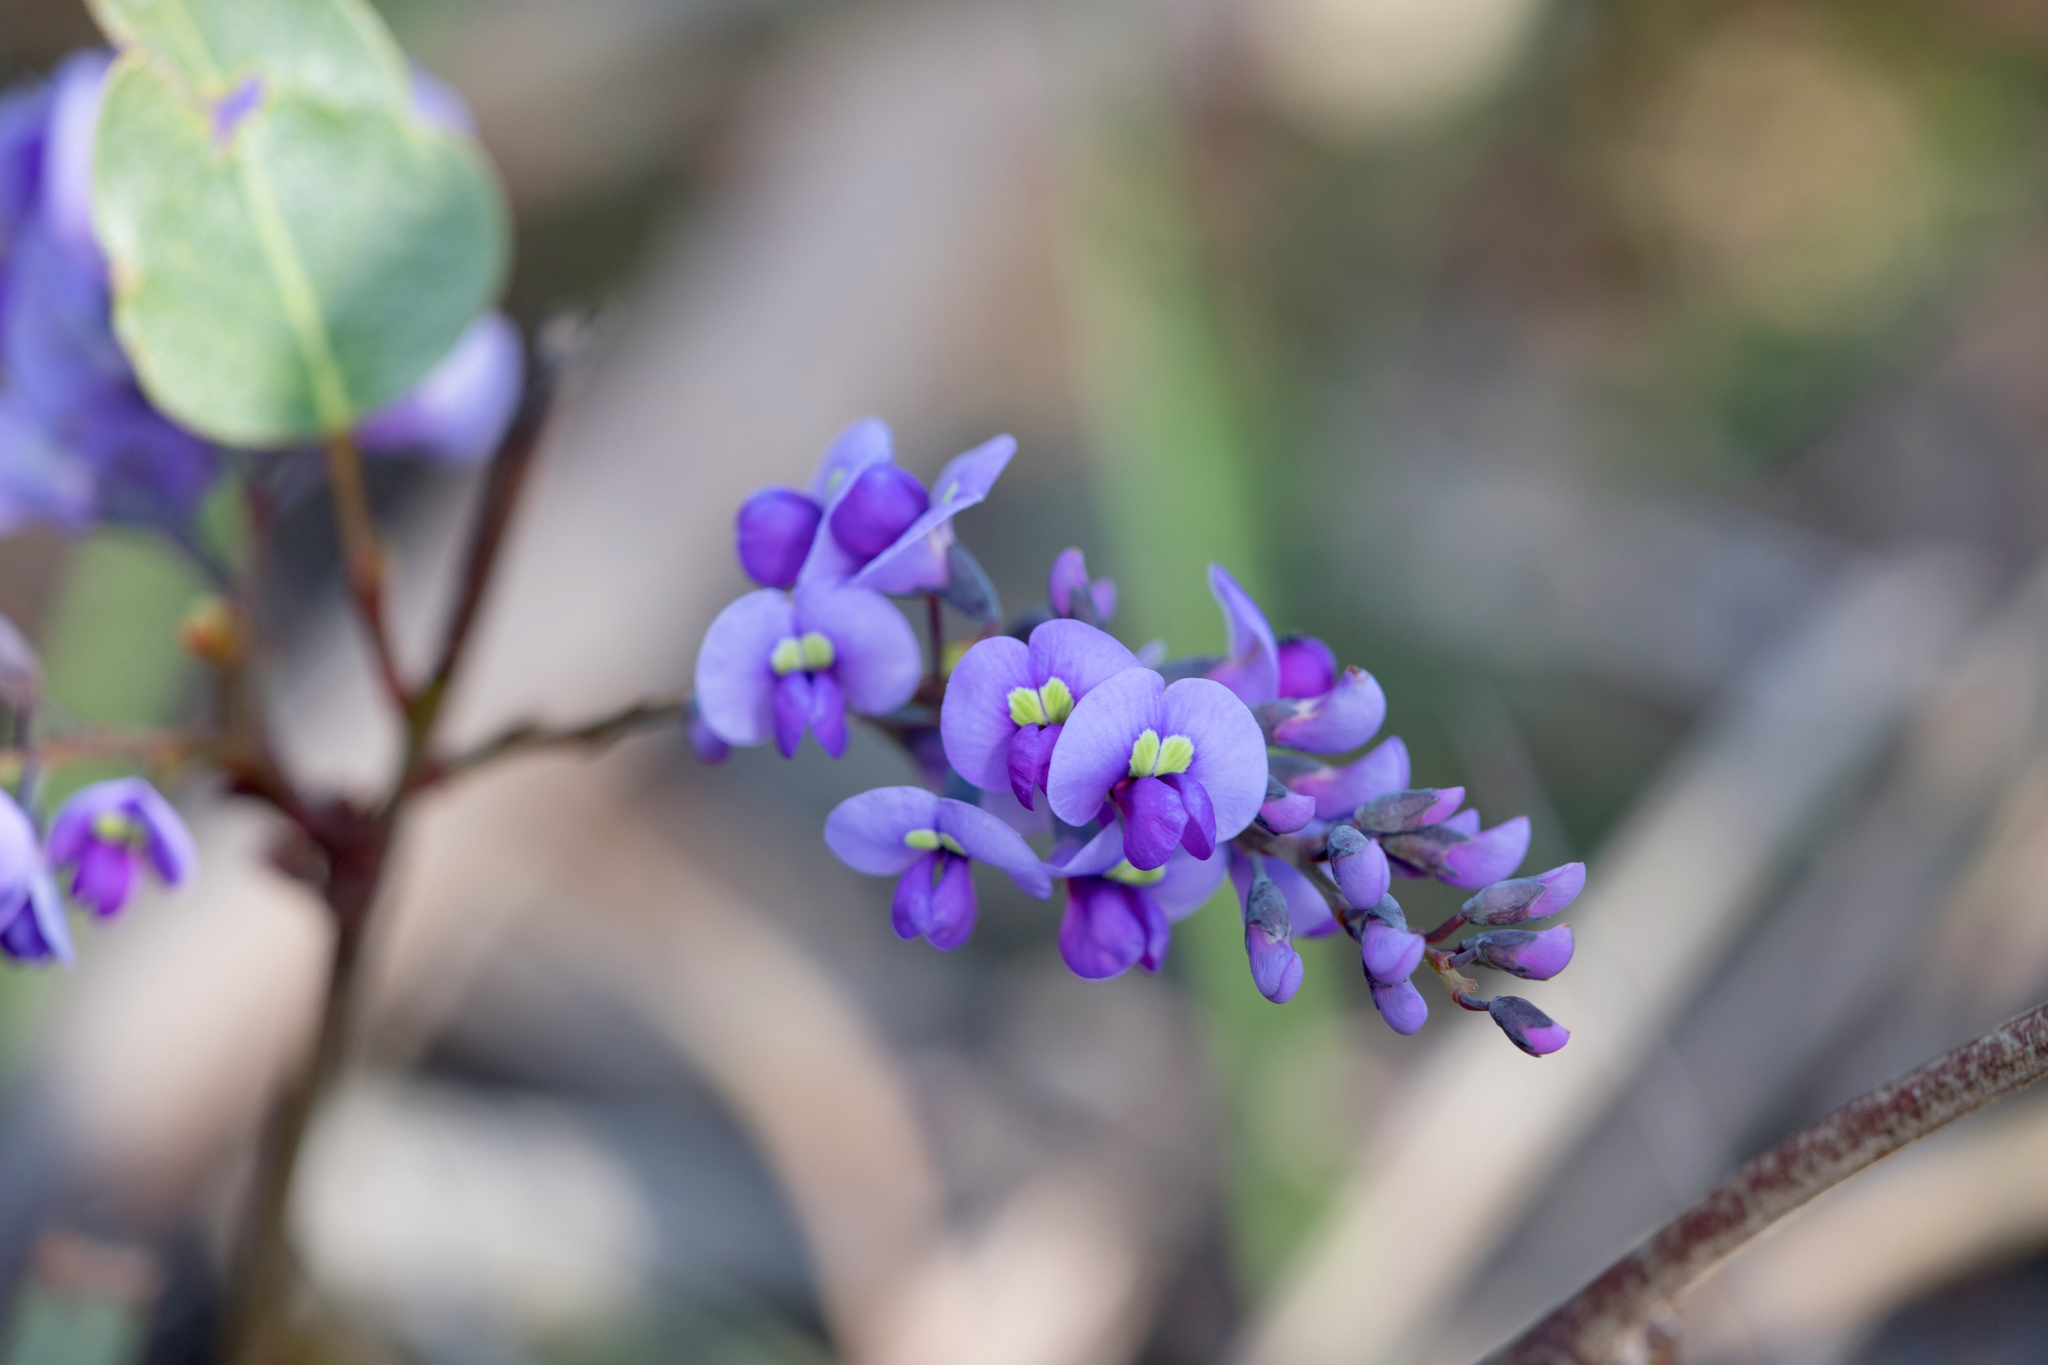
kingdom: Plantae
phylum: Tracheophyta
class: Magnoliopsida
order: Fabales
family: Fabaceae
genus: Hardenbergia
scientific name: Hardenbergia violacea
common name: Coral-pea
